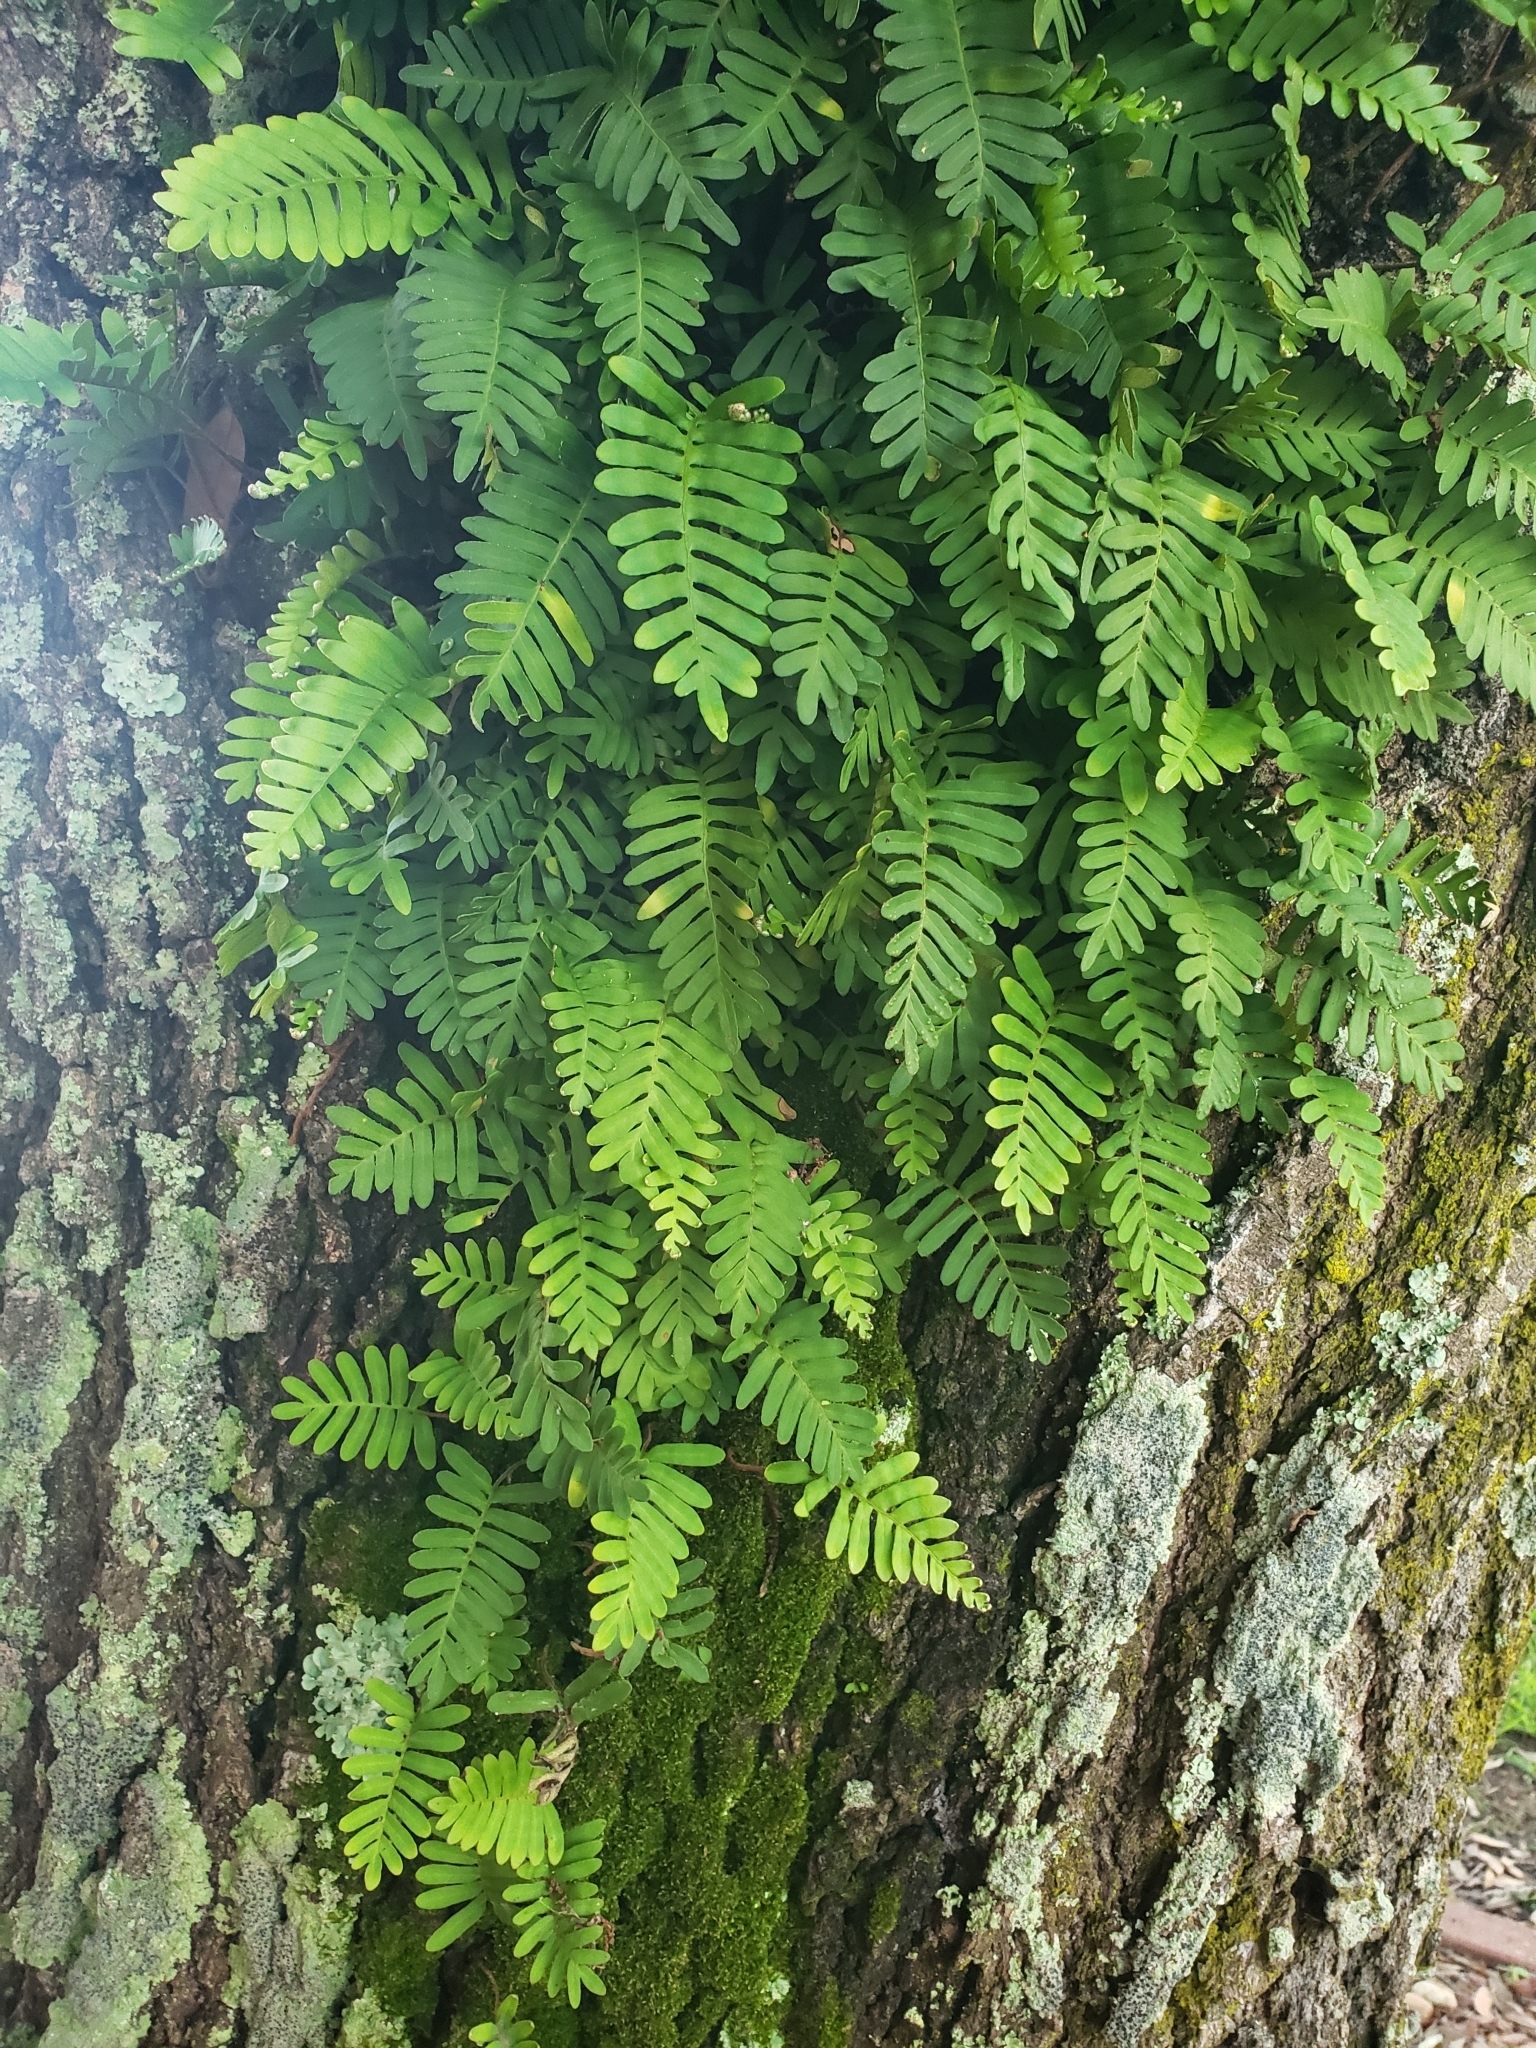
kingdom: Plantae
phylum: Tracheophyta
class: Polypodiopsida
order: Polypodiales
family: Polypodiaceae
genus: Pleopeltis
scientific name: Pleopeltis michauxiana
